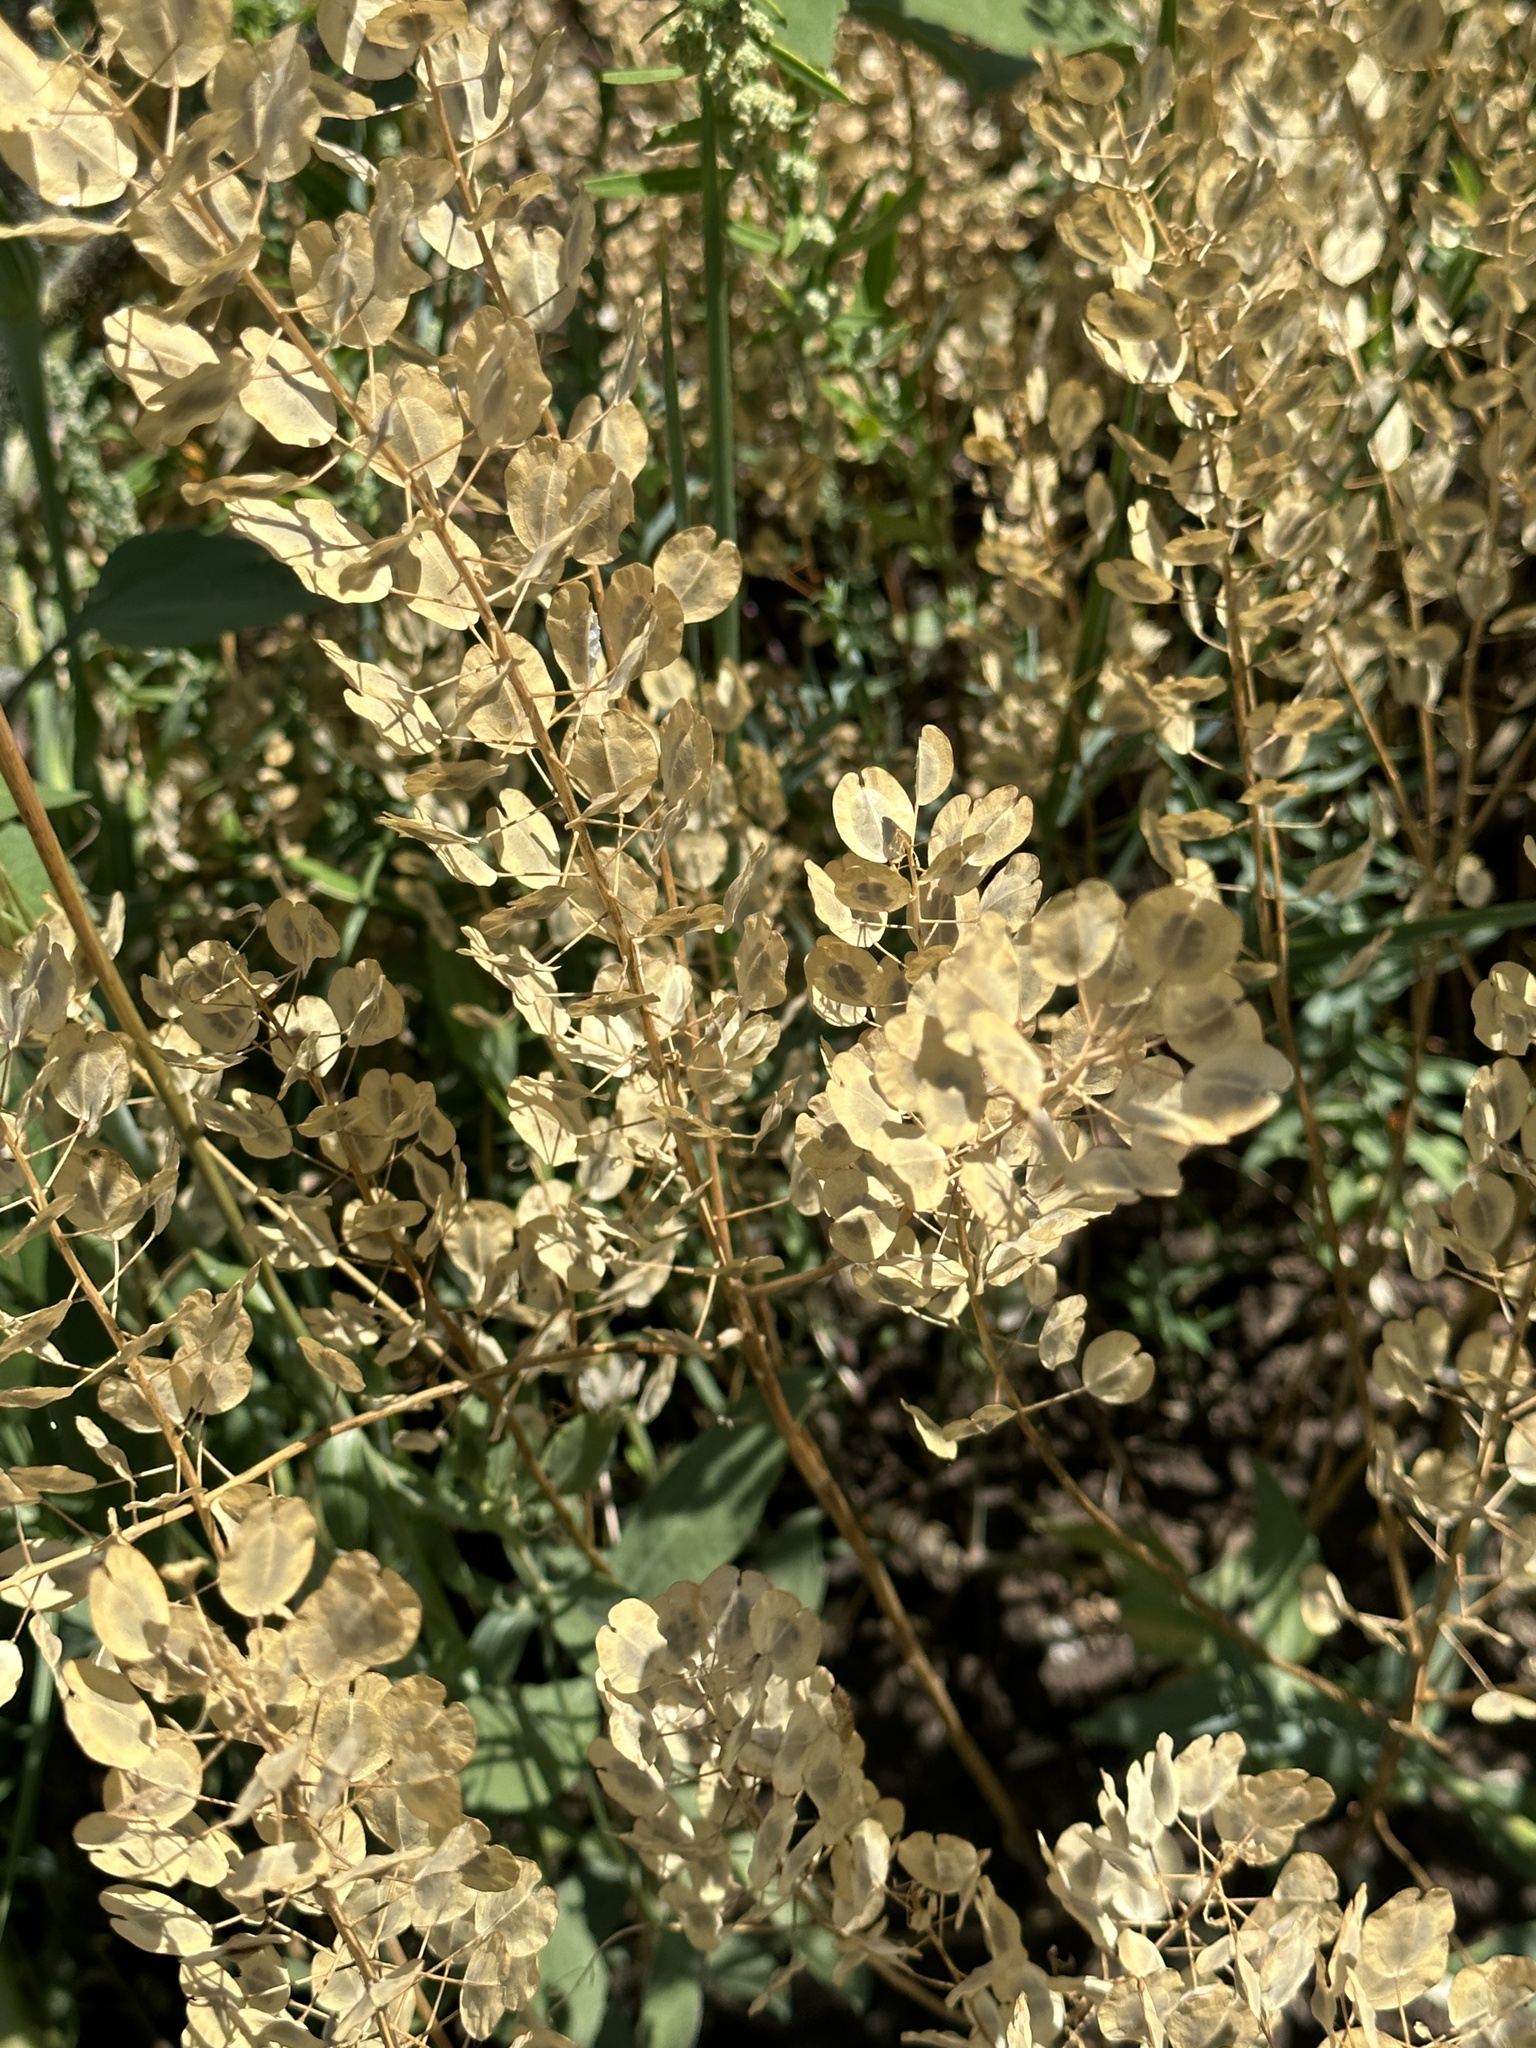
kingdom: Plantae
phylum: Tracheophyta
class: Magnoliopsida
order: Brassicales
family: Brassicaceae
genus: Thlaspi
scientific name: Thlaspi arvense
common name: Field pennycress
